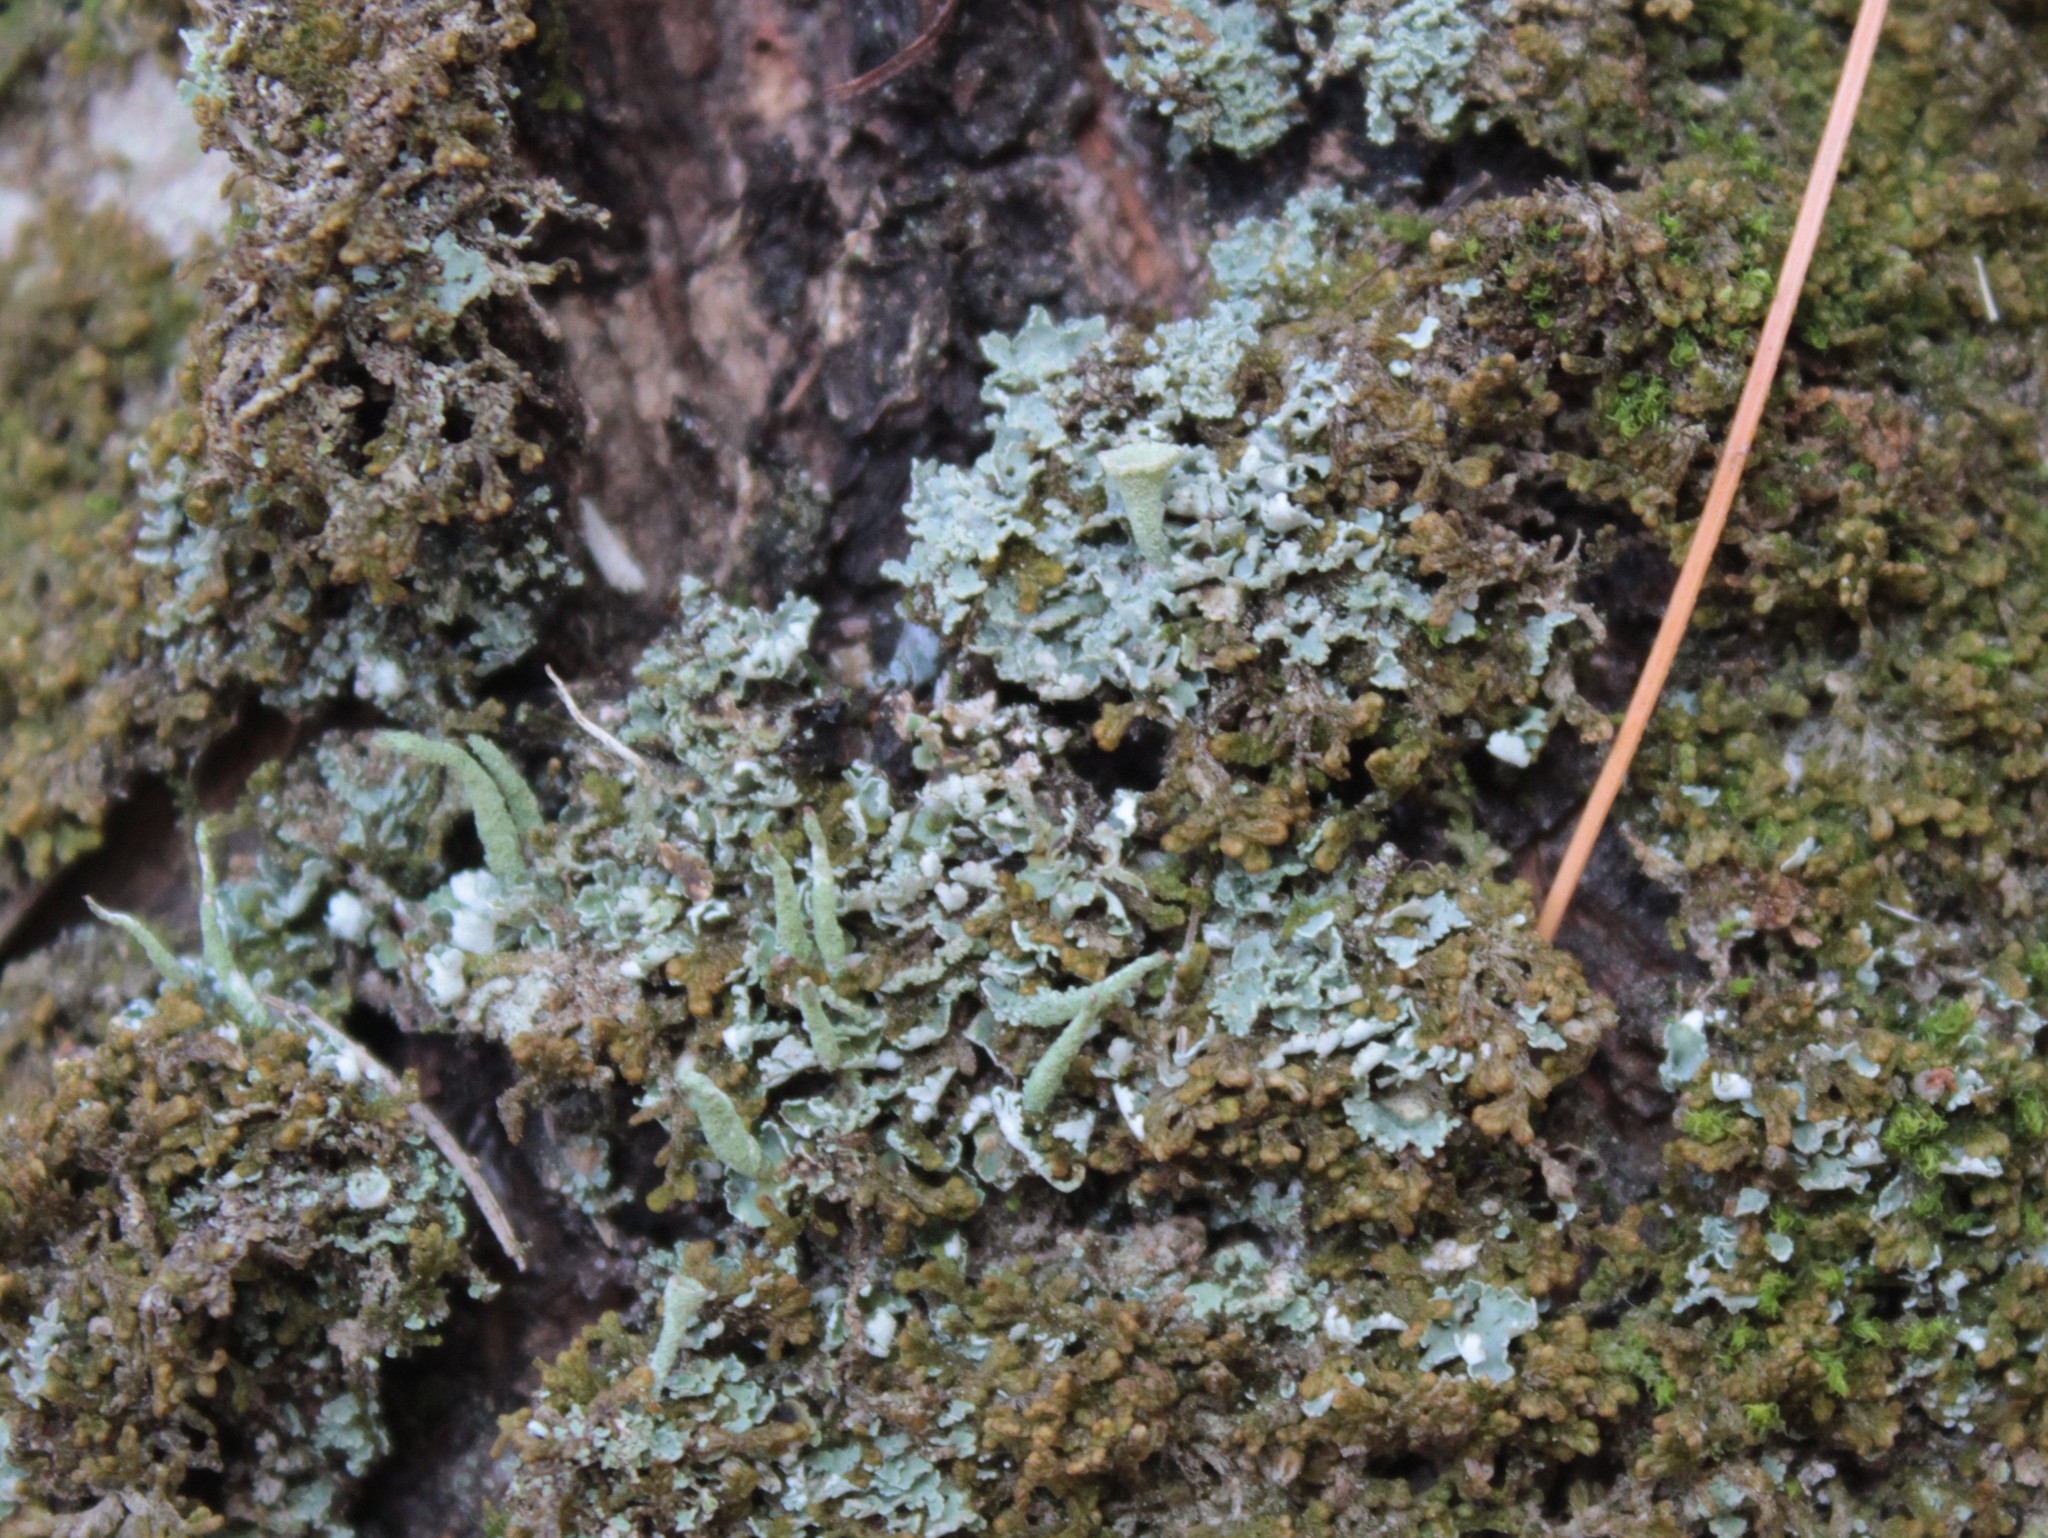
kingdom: Fungi
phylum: Ascomycota
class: Lecanoromycetes
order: Lecanorales
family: Cladoniaceae
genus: Cladonia
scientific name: Cladonia coniocraea
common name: Common powderhorn
